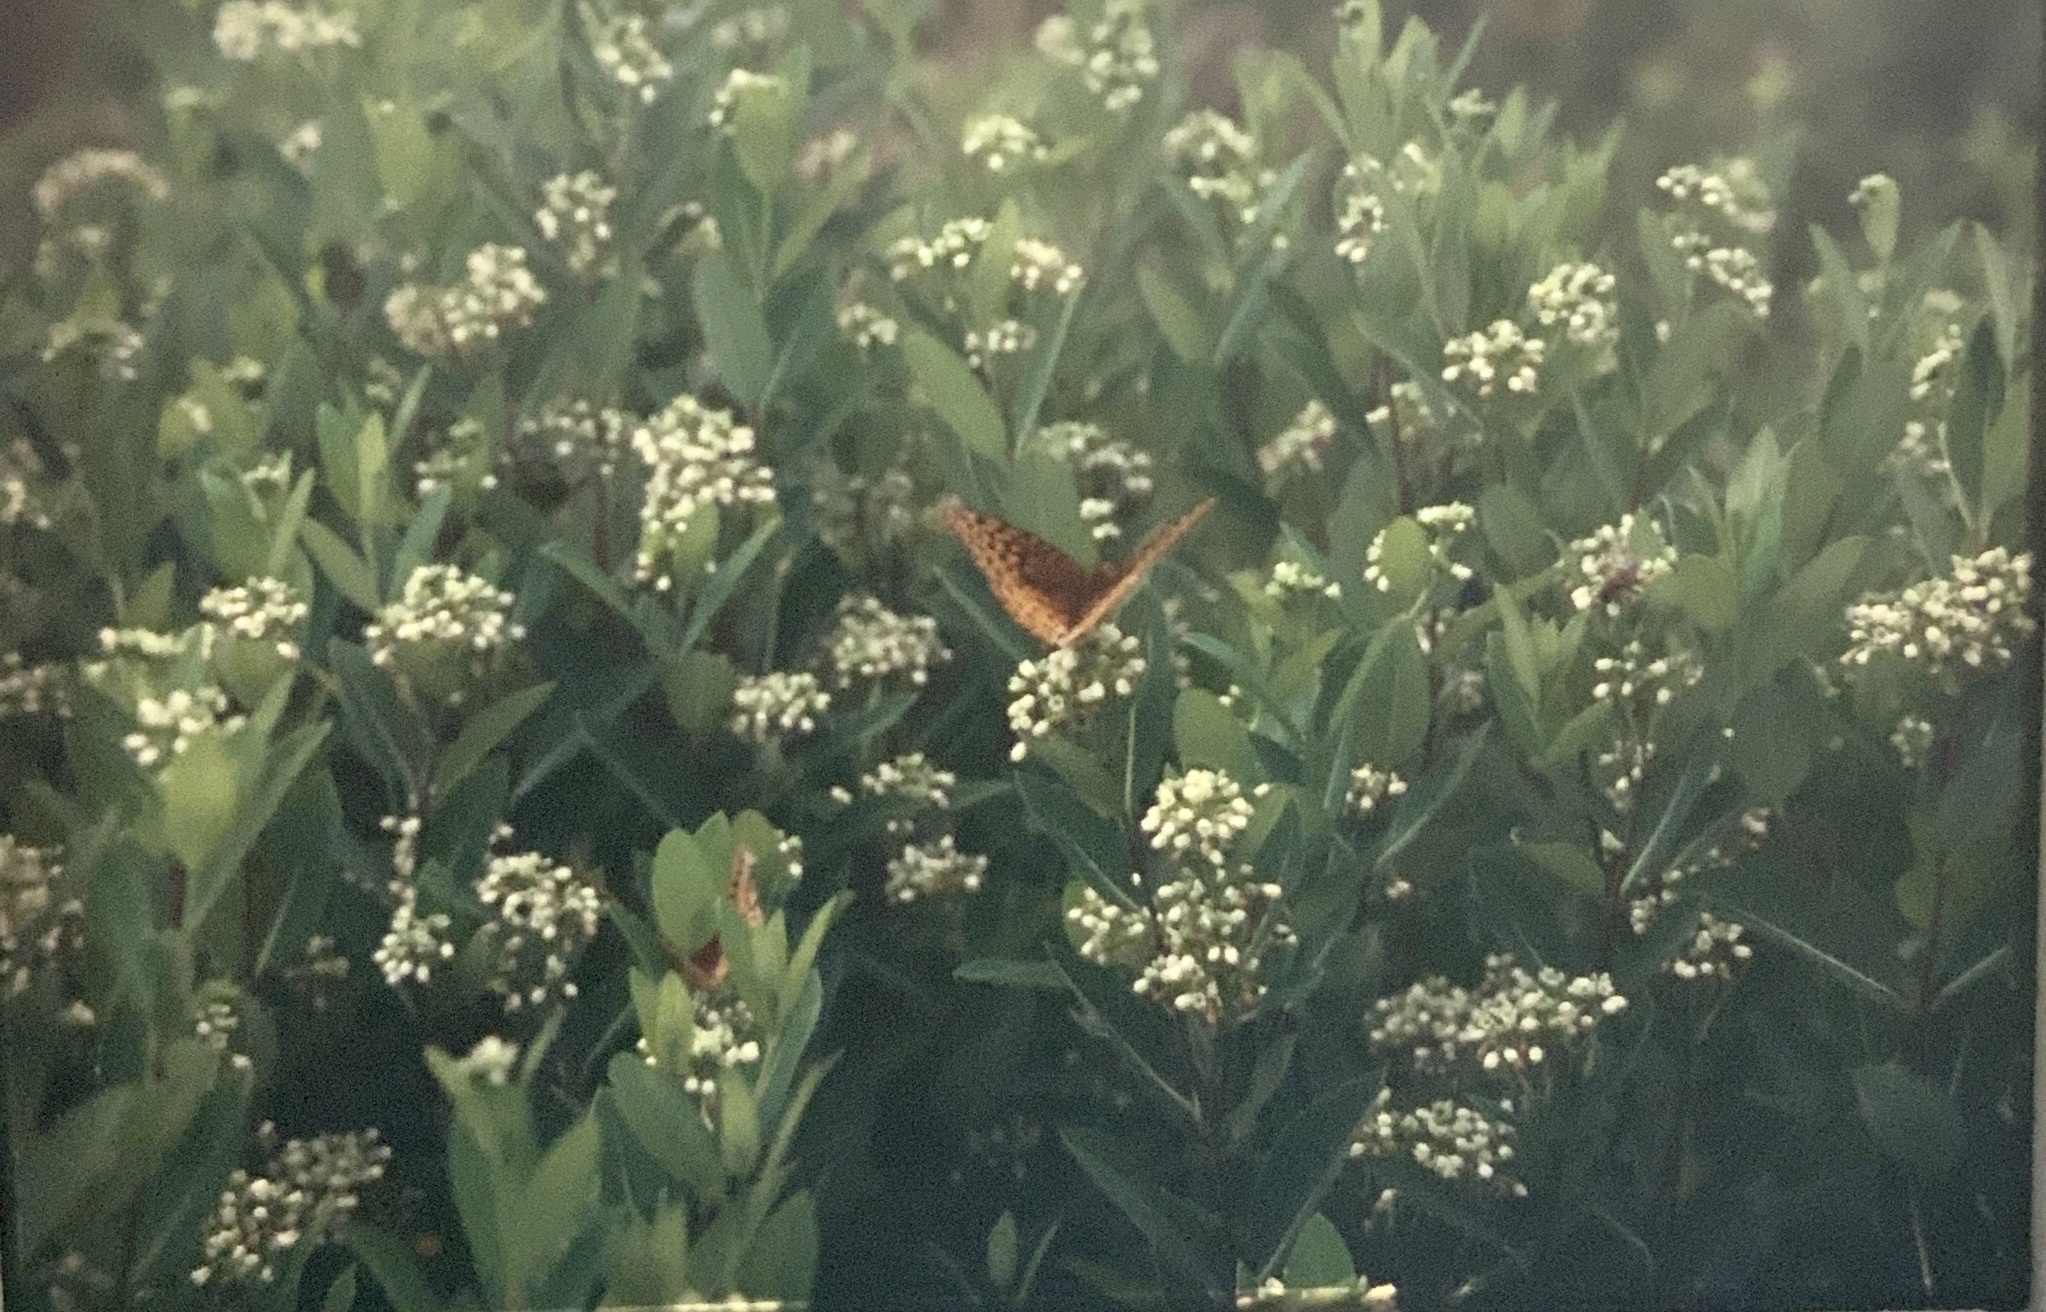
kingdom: Animalia
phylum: Arthropoda
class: Insecta
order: Lepidoptera
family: Nymphalidae
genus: Speyeria
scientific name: Speyeria cybele
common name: Great spangled fritillary
